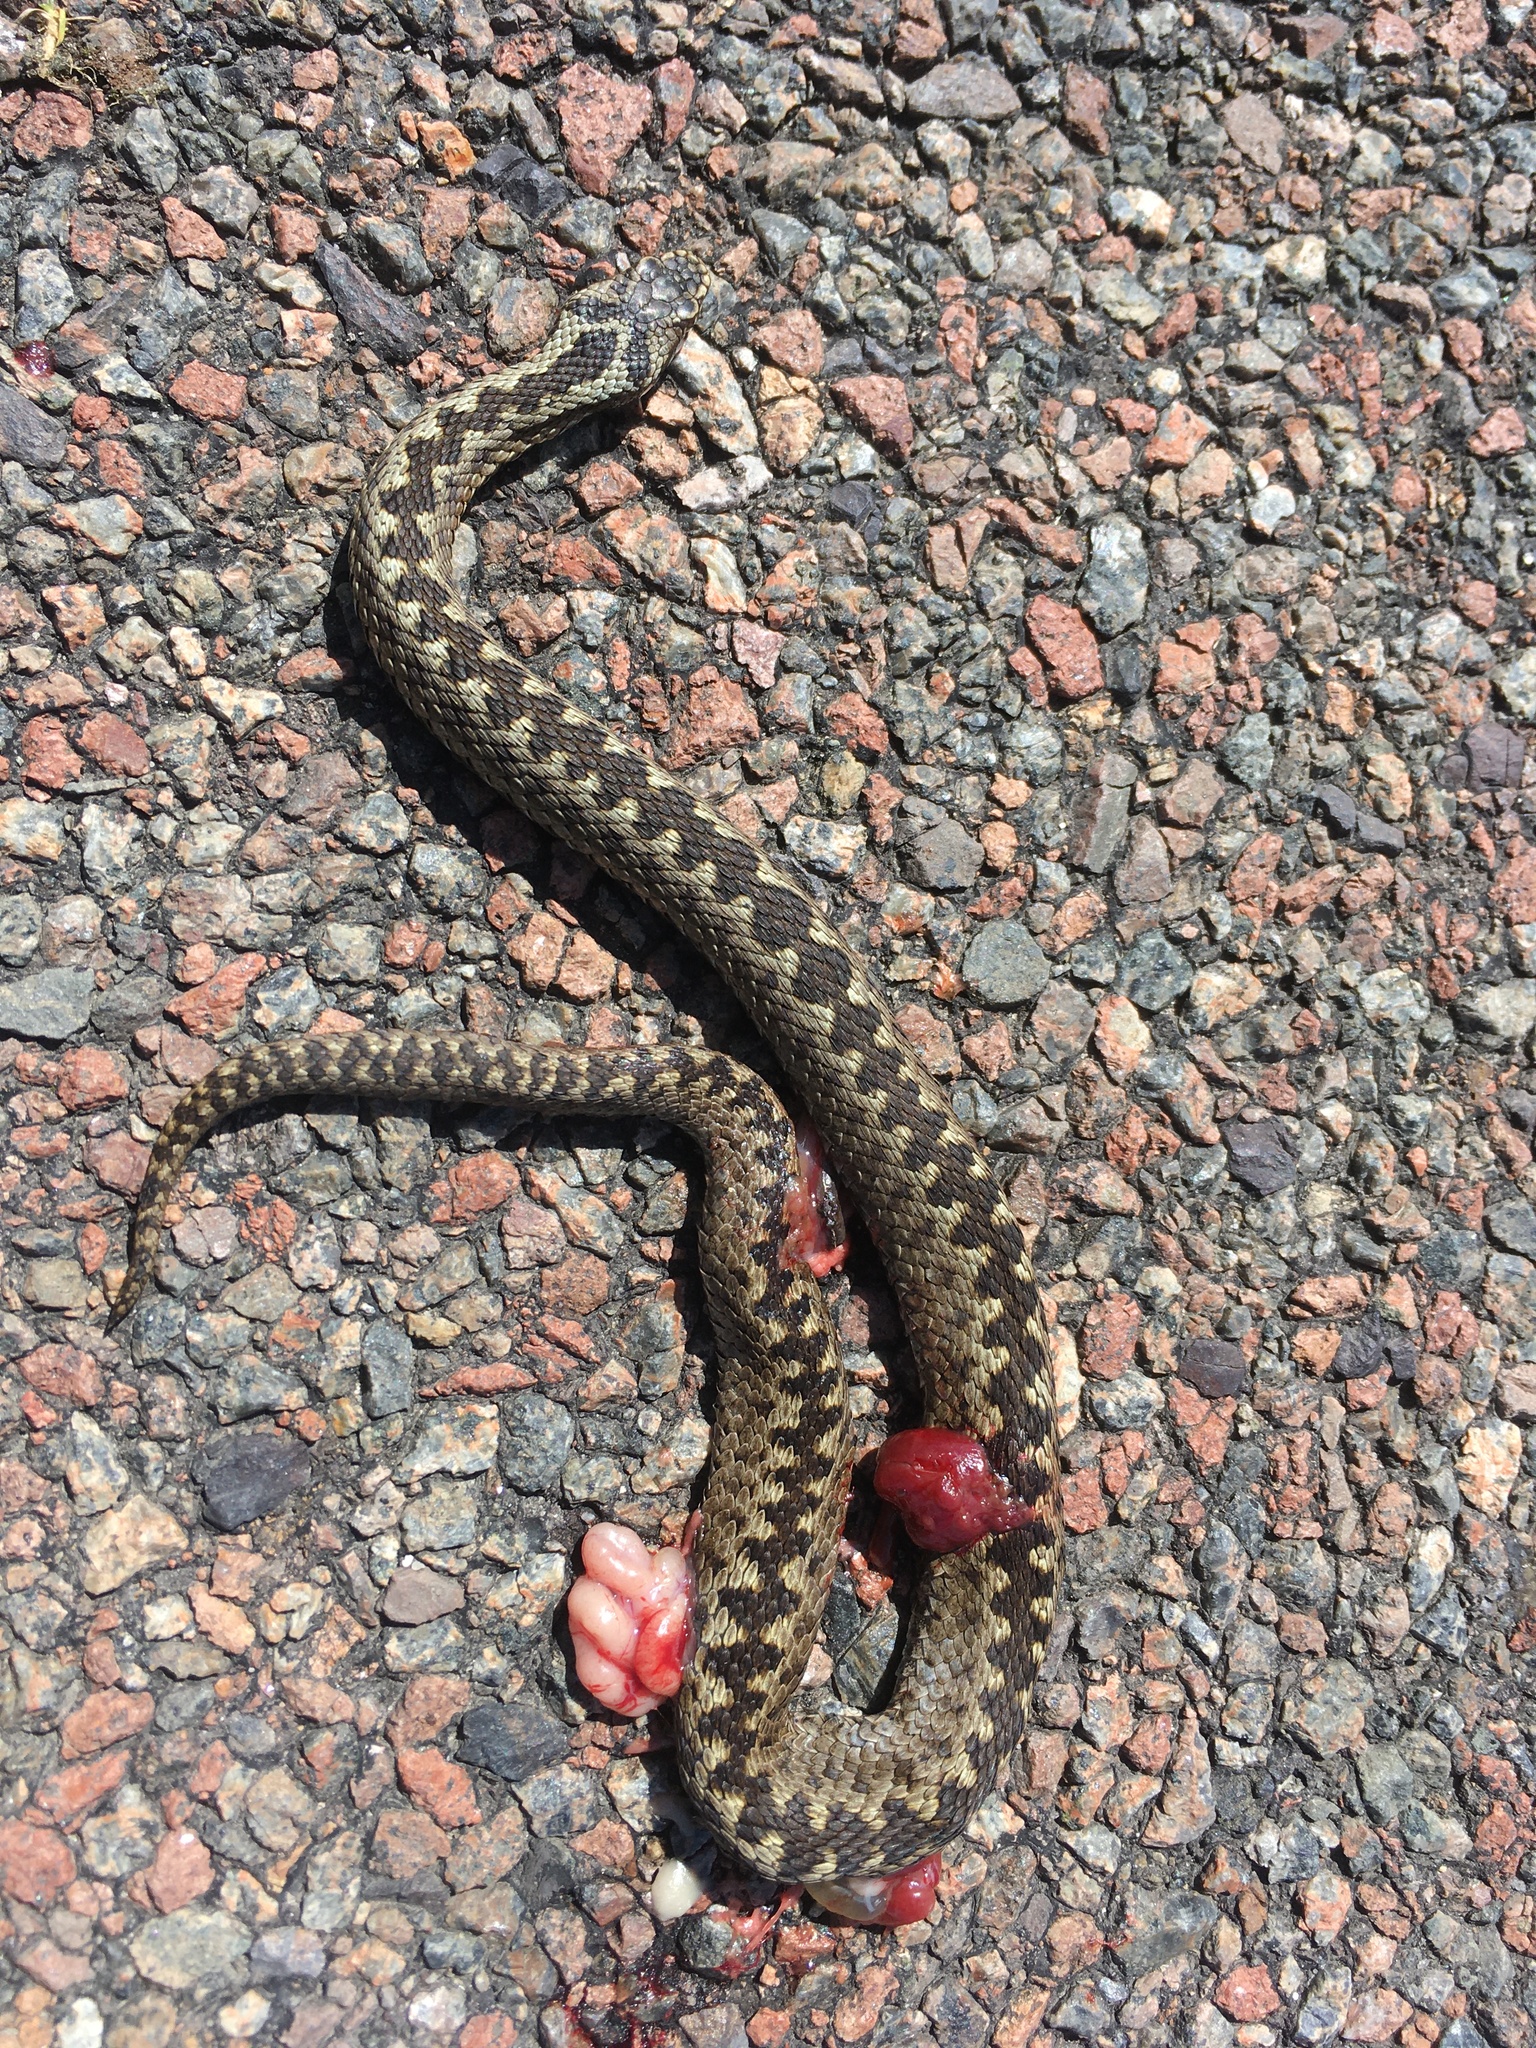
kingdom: Animalia
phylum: Chordata
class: Squamata
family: Viperidae
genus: Vipera
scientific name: Vipera berus
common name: Adder
